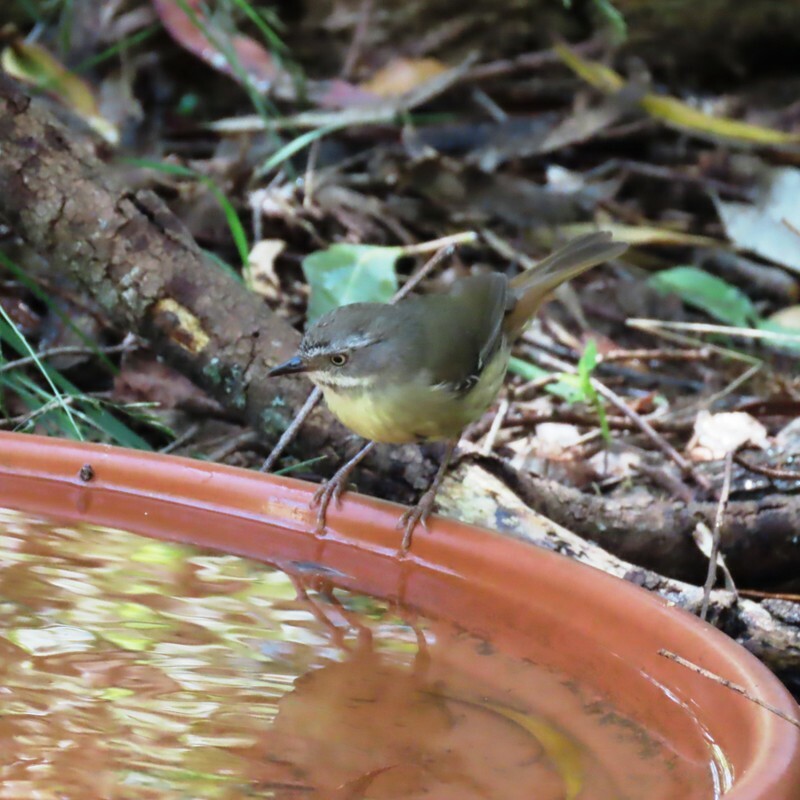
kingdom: Animalia
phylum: Chordata
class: Aves
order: Passeriformes
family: Acanthizidae
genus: Sericornis
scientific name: Sericornis frontalis
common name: White-browed scrubwren
